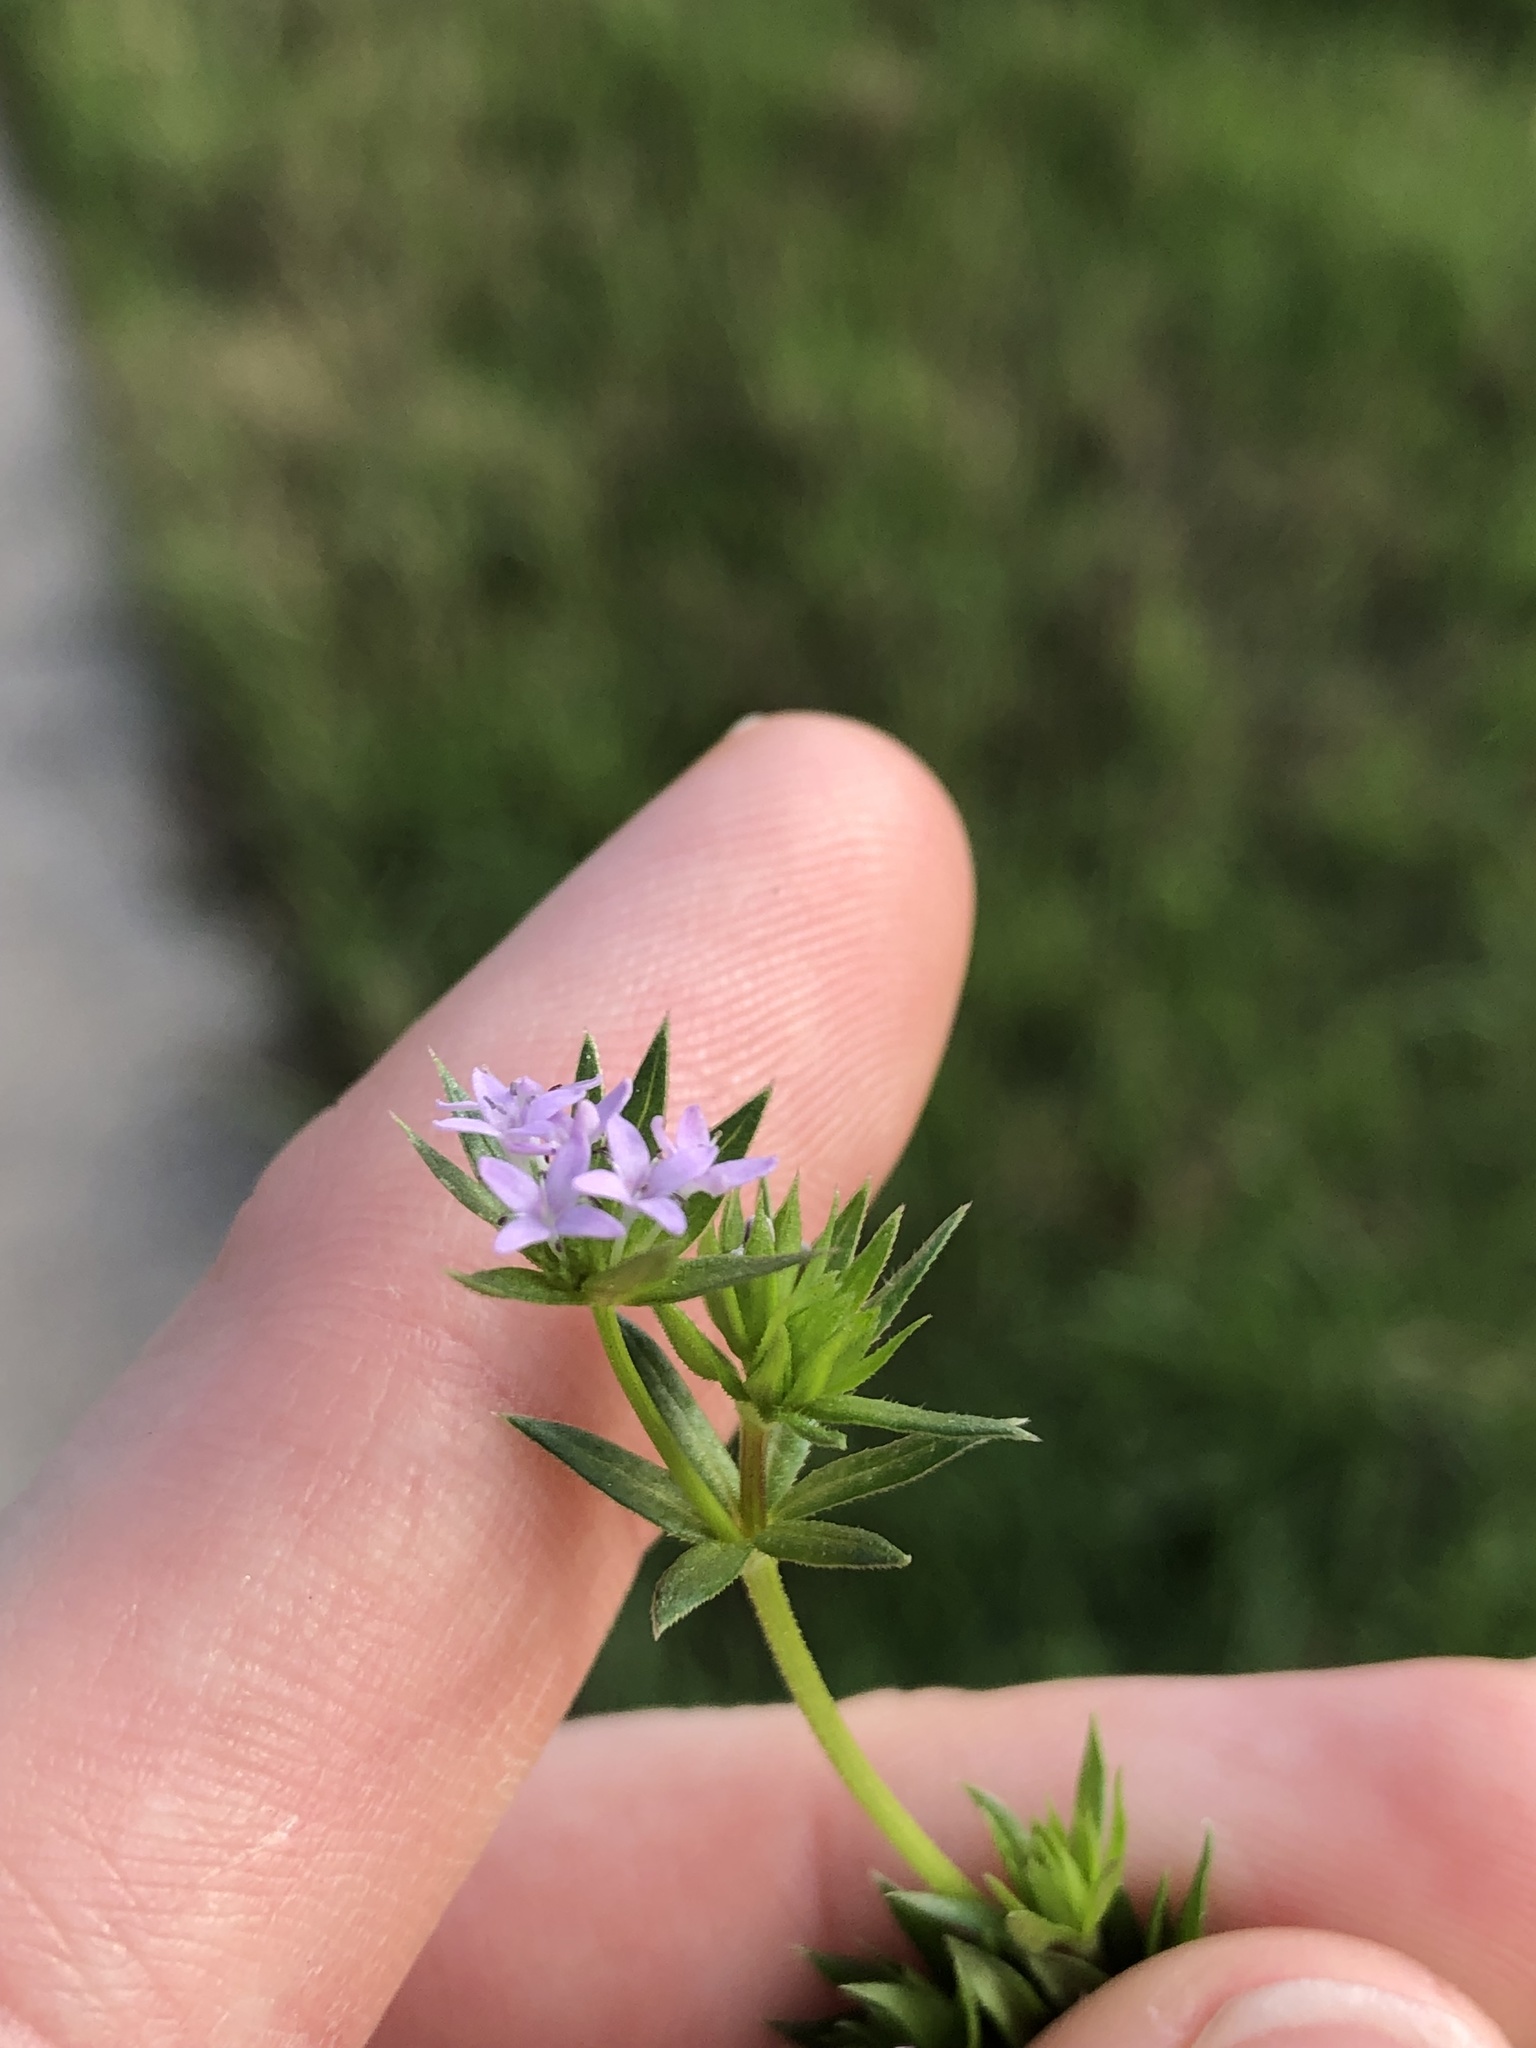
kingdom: Plantae
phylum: Tracheophyta
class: Magnoliopsida
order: Gentianales
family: Rubiaceae
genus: Sherardia
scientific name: Sherardia arvensis
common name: Field madder
